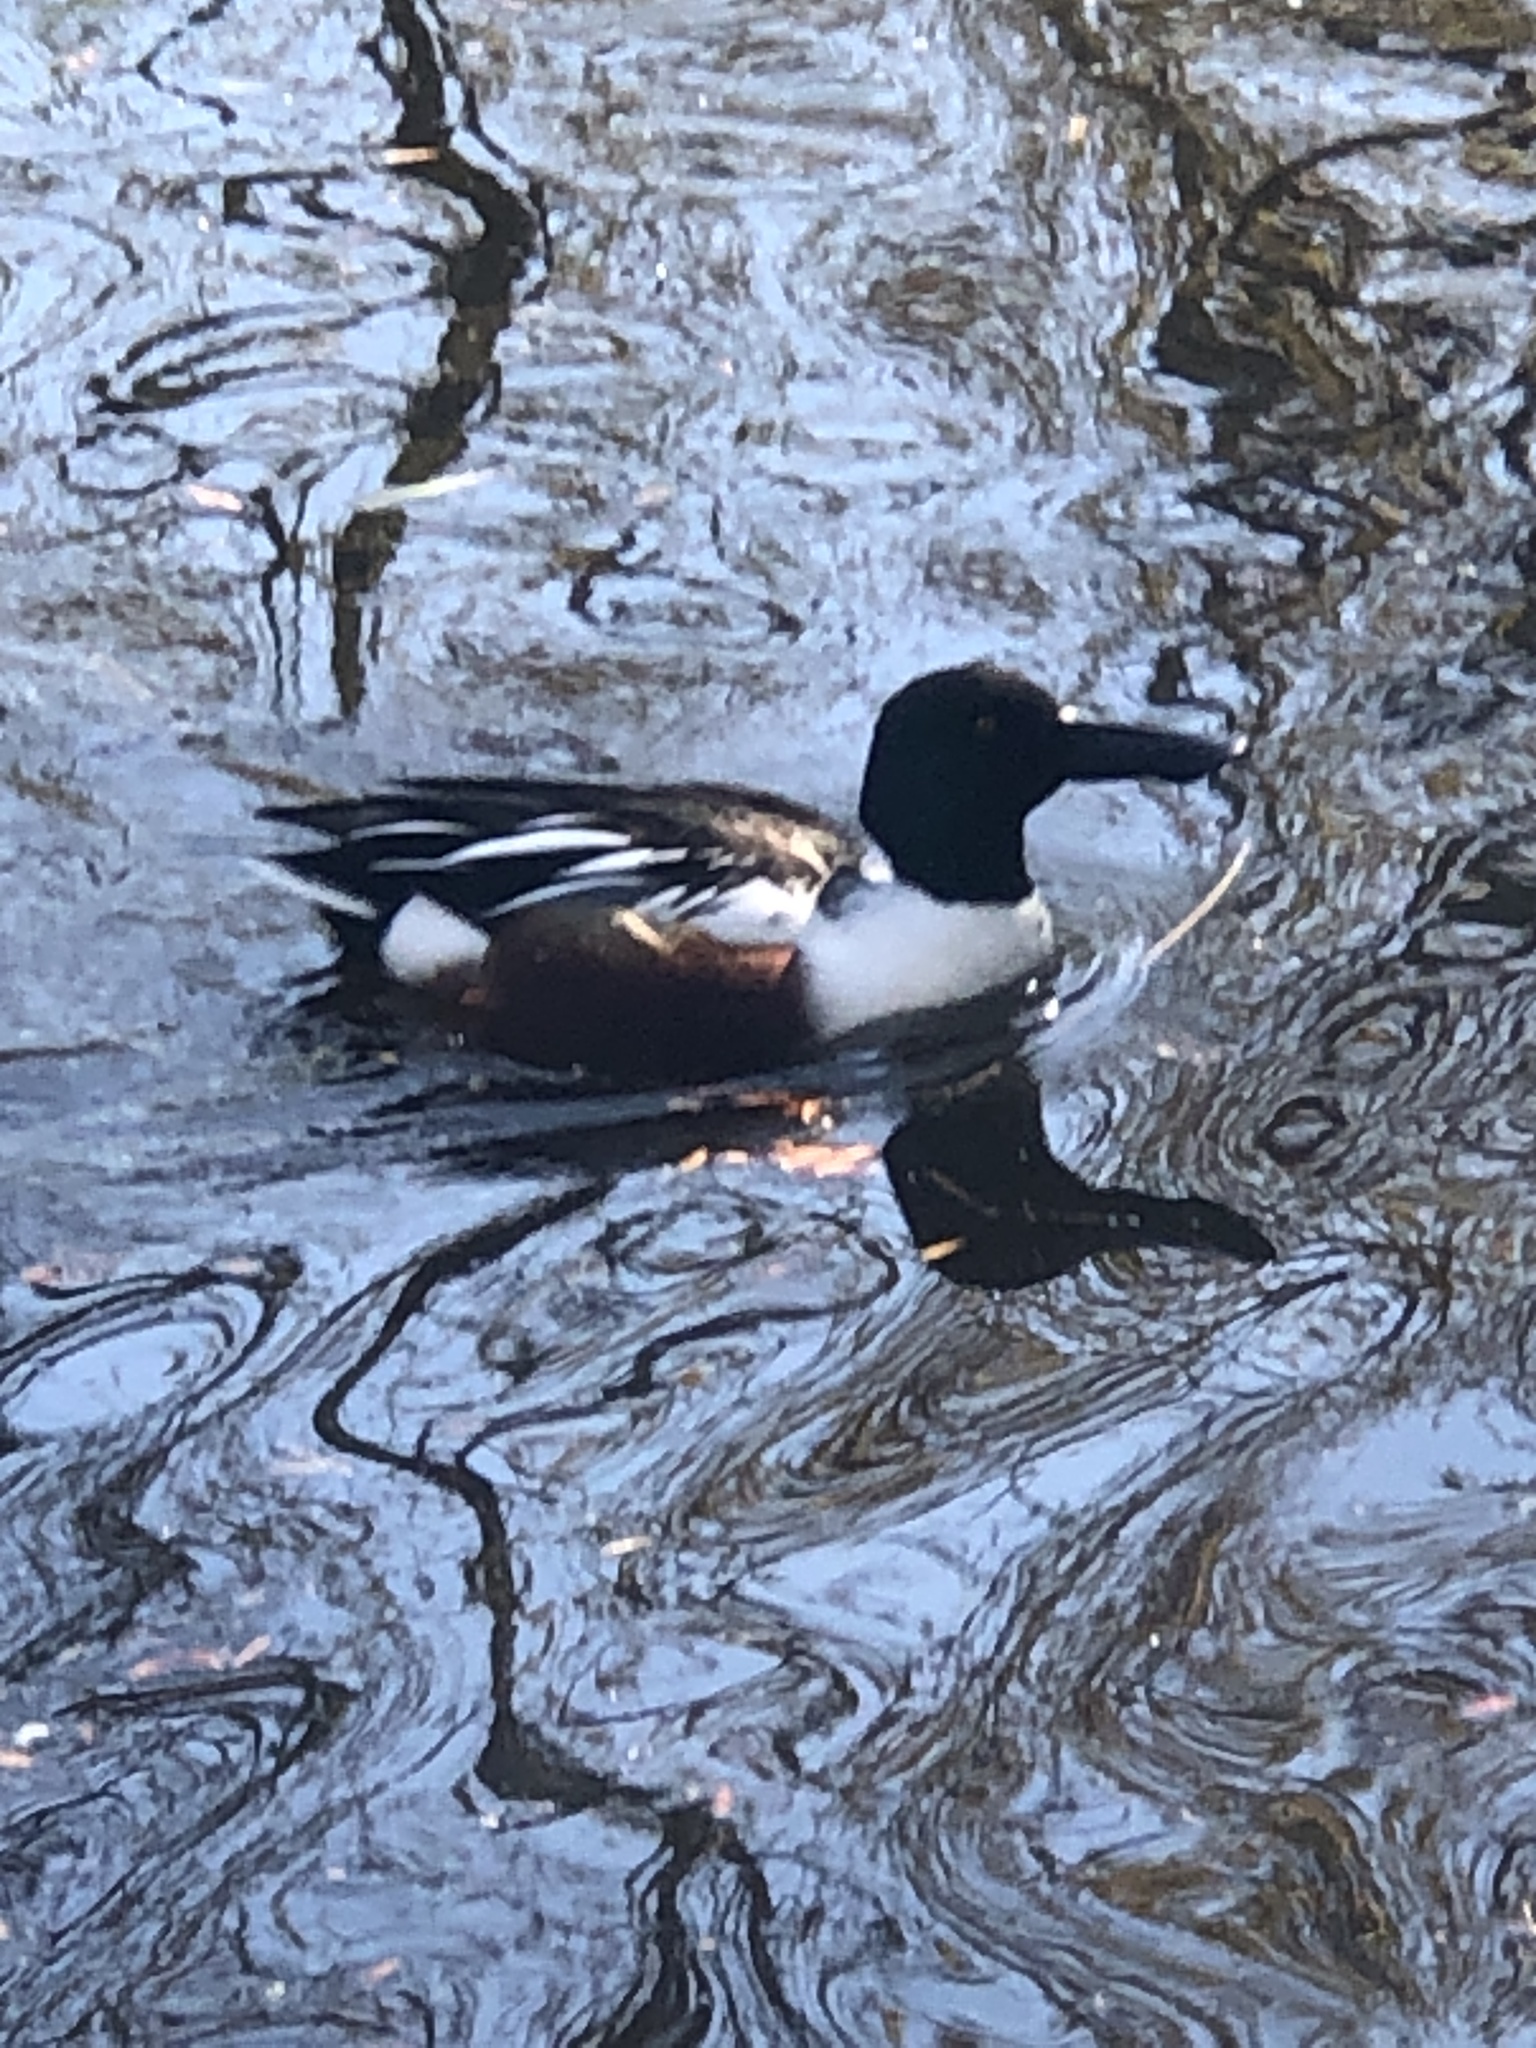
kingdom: Animalia
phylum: Chordata
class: Aves
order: Anseriformes
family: Anatidae
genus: Spatula
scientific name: Spatula clypeata
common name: Northern shoveler
